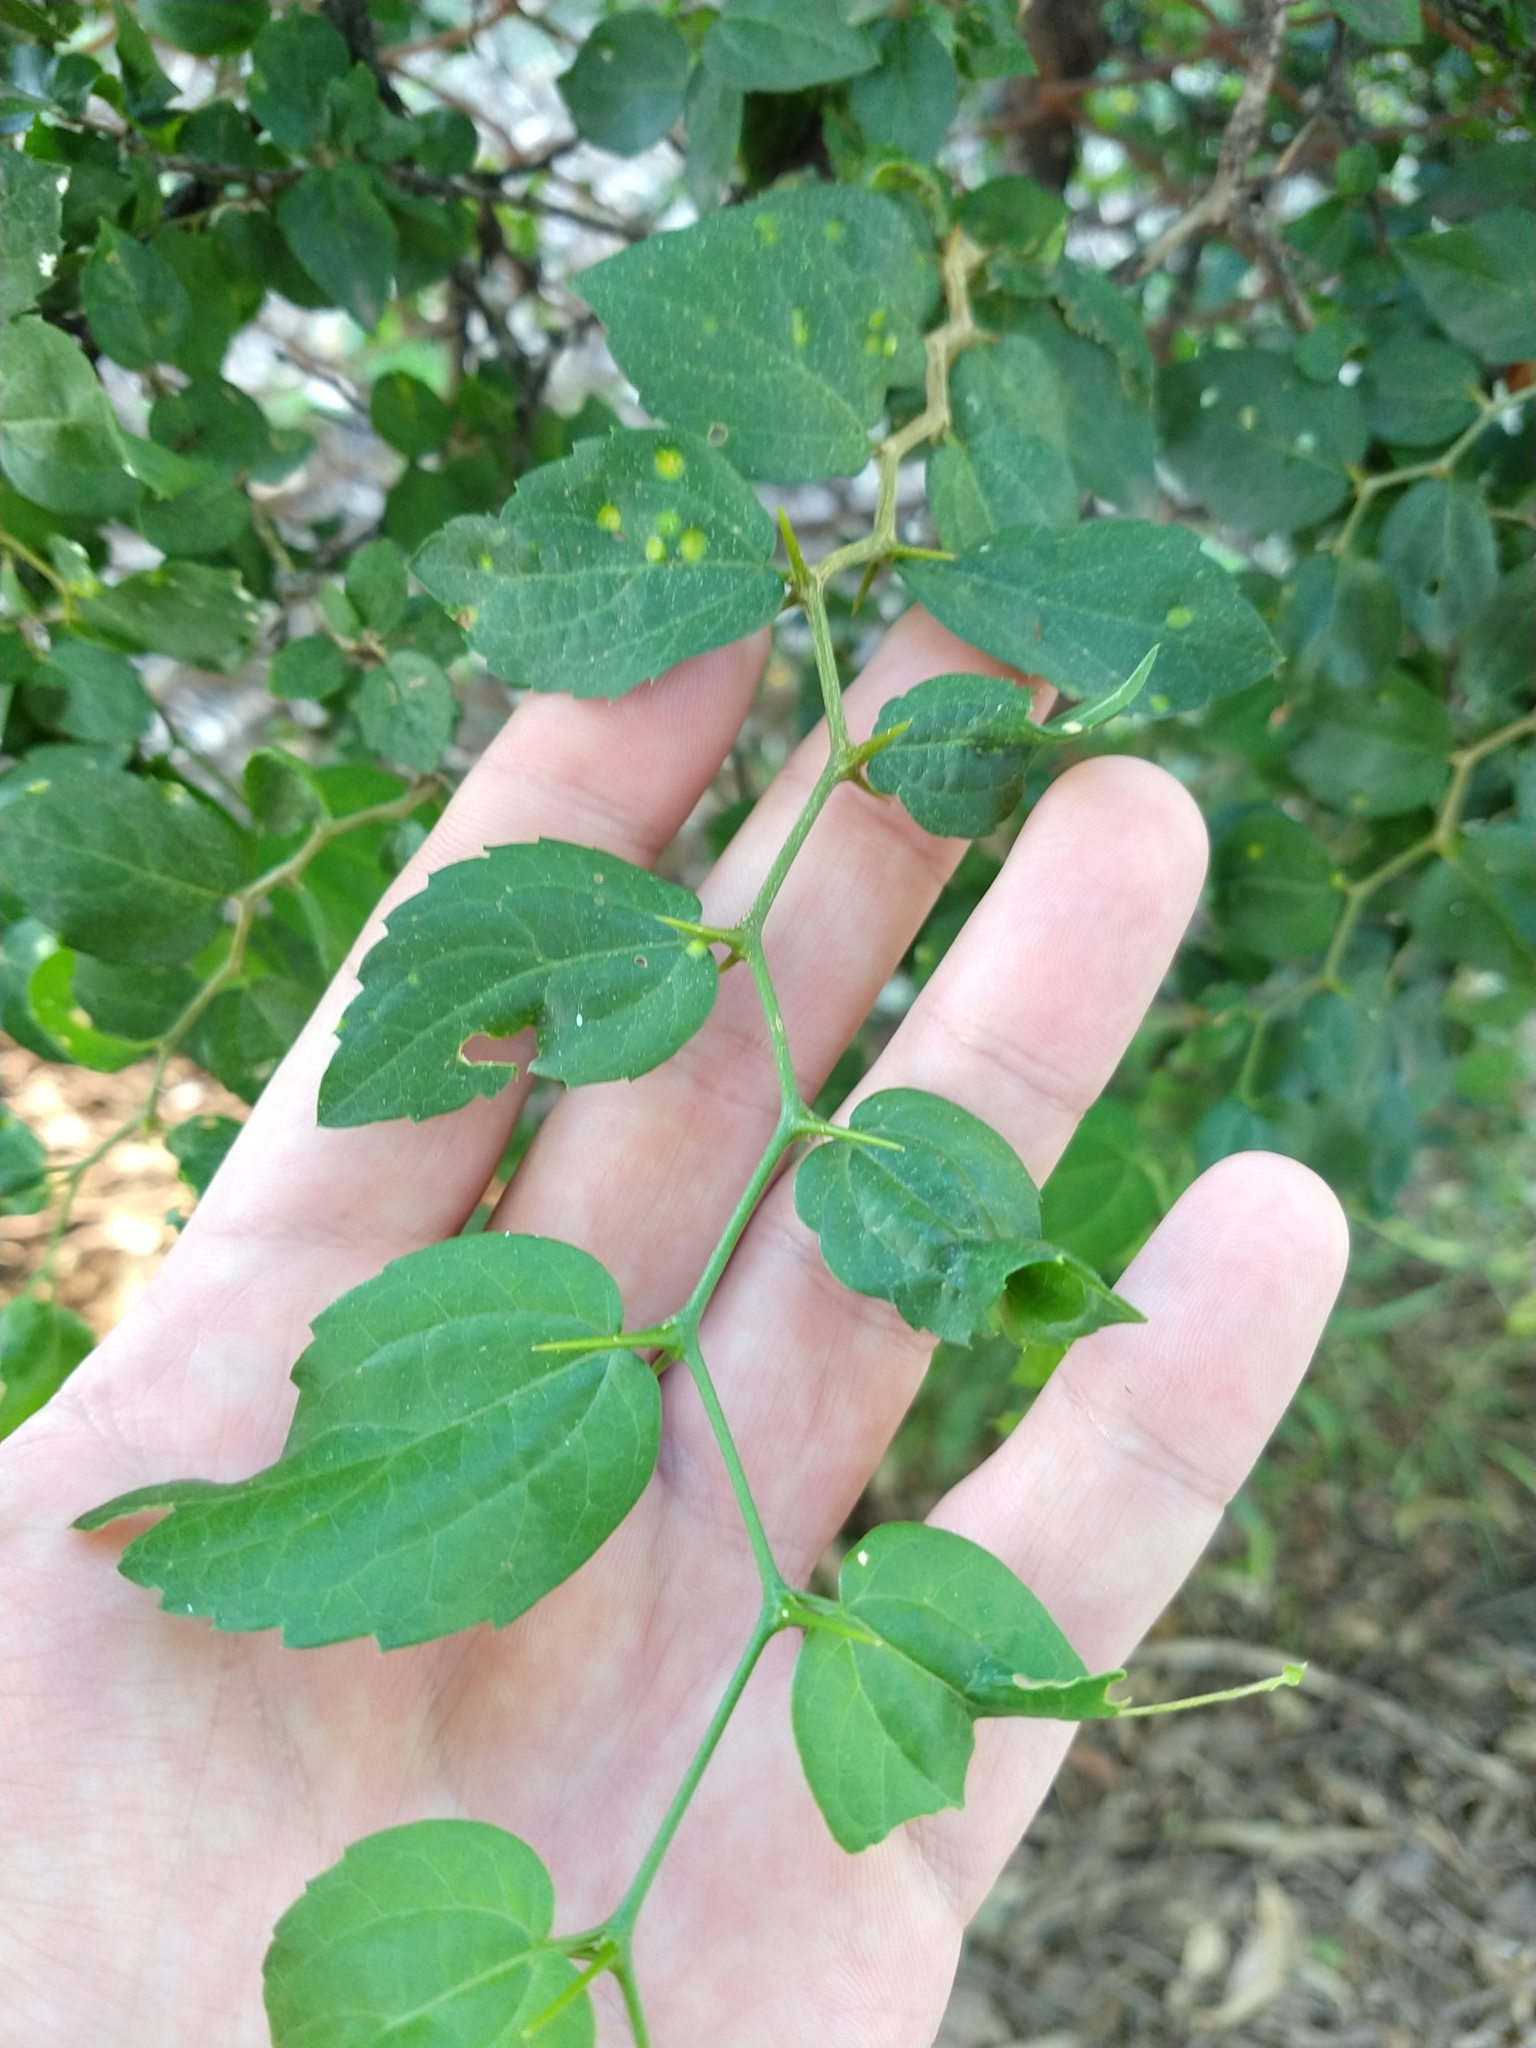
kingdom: Plantae
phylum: Tracheophyta
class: Magnoliopsida
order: Rosales
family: Cannabaceae
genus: Celtis
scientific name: Celtis tala
